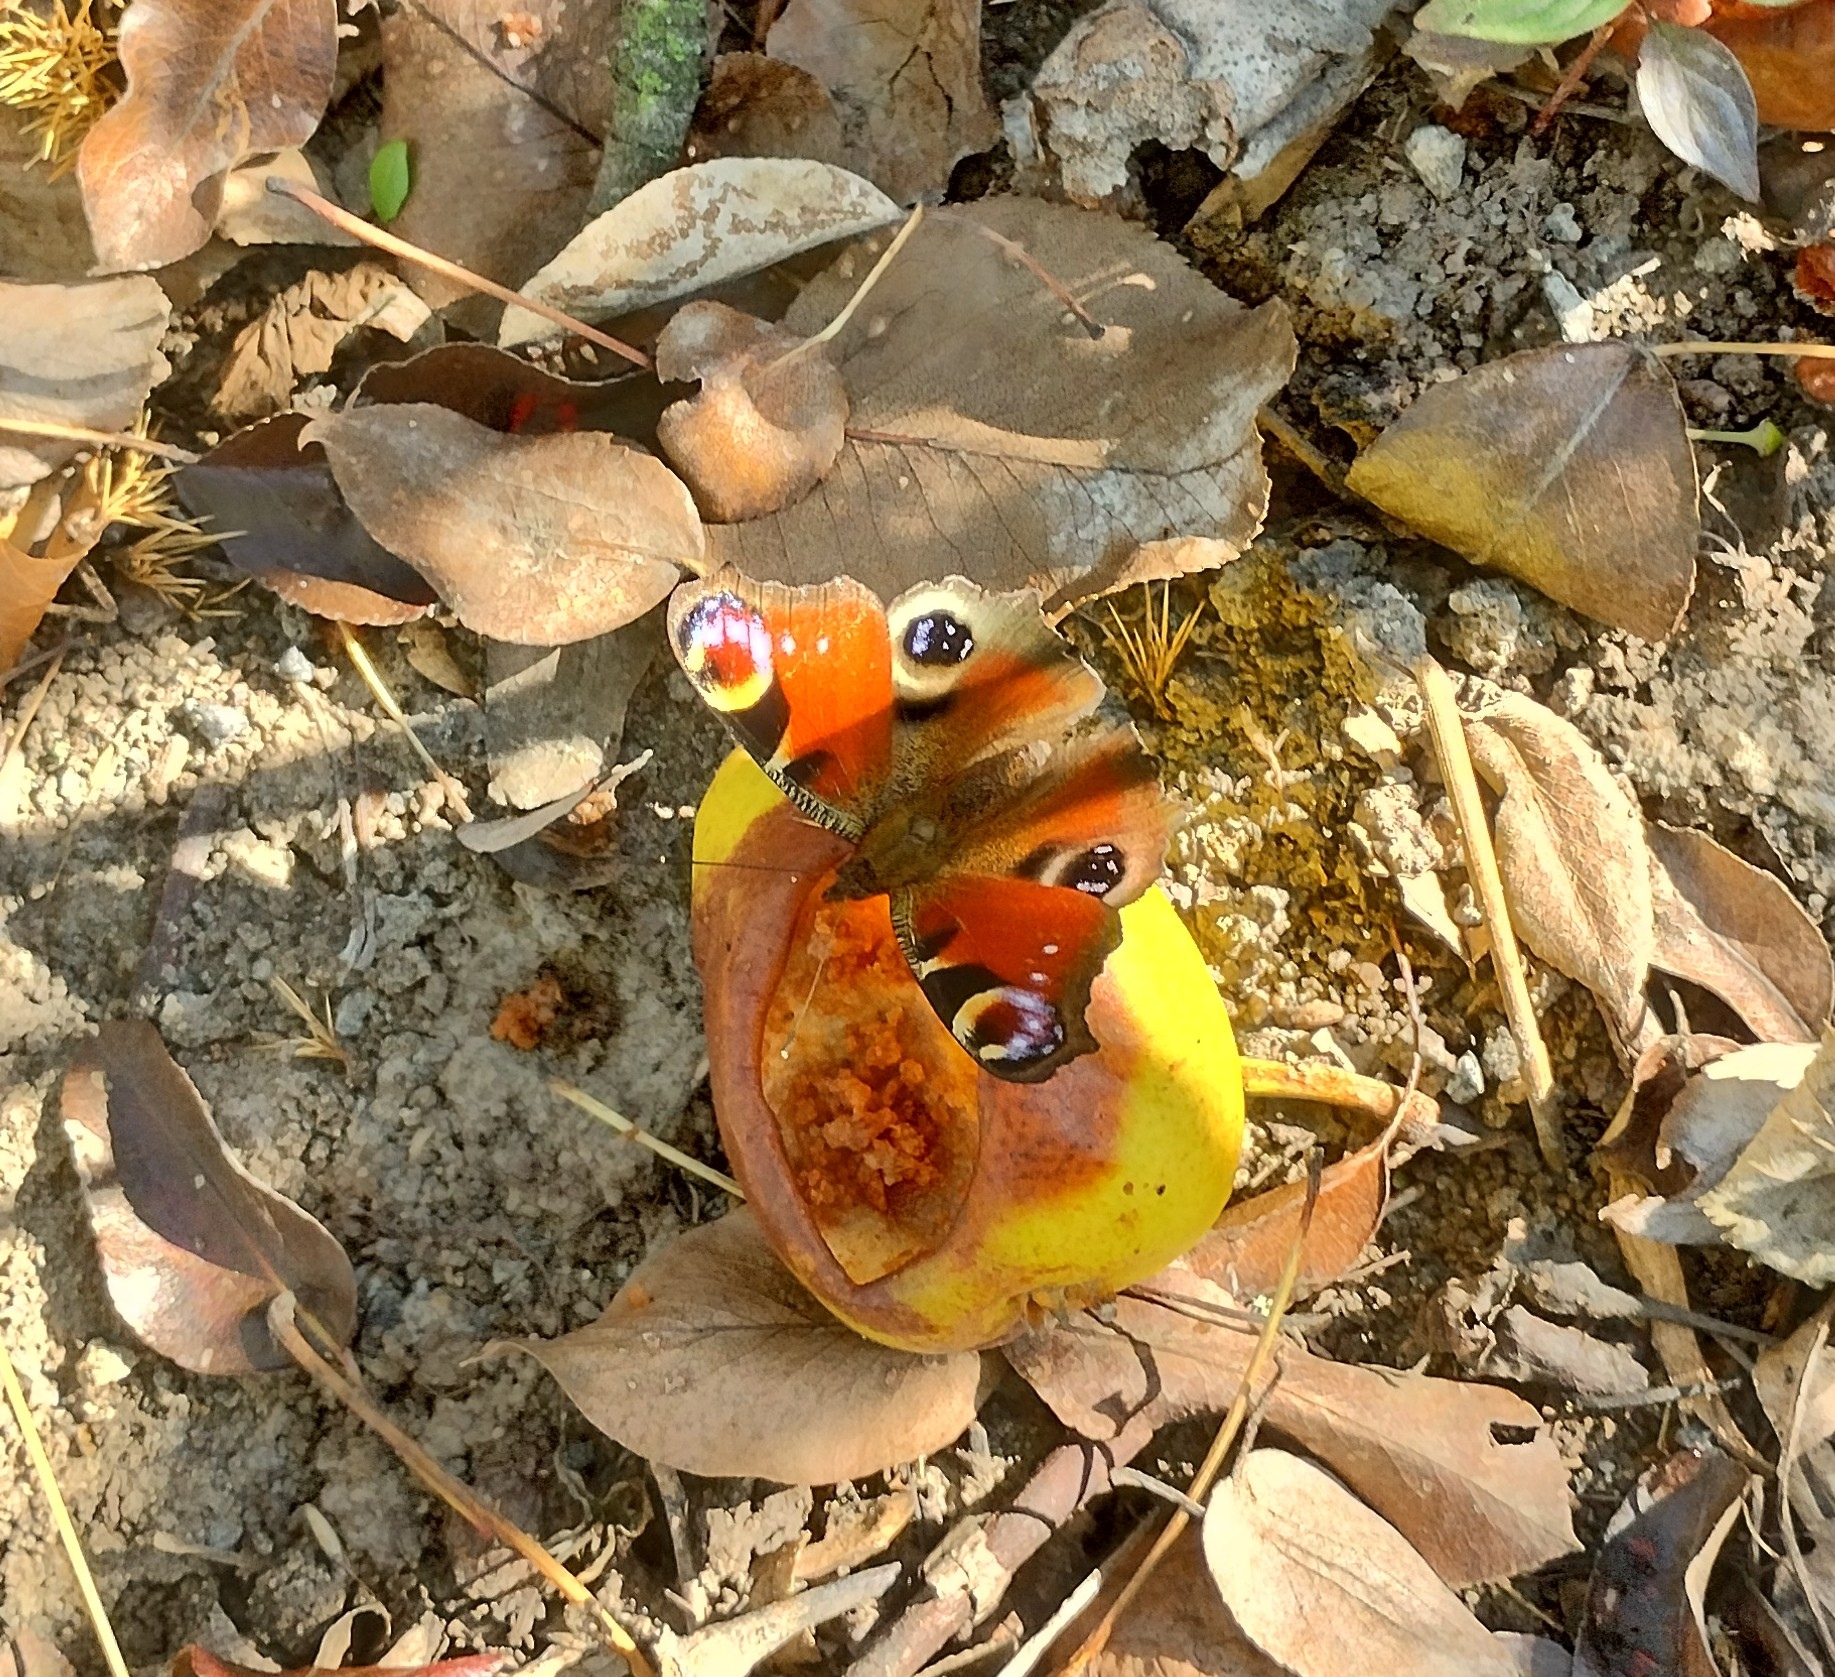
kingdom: Animalia
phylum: Arthropoda
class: Insecta
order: Lepidoptera
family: Nymphalidae
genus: Aglais
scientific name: Aglais io
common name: Peacock
